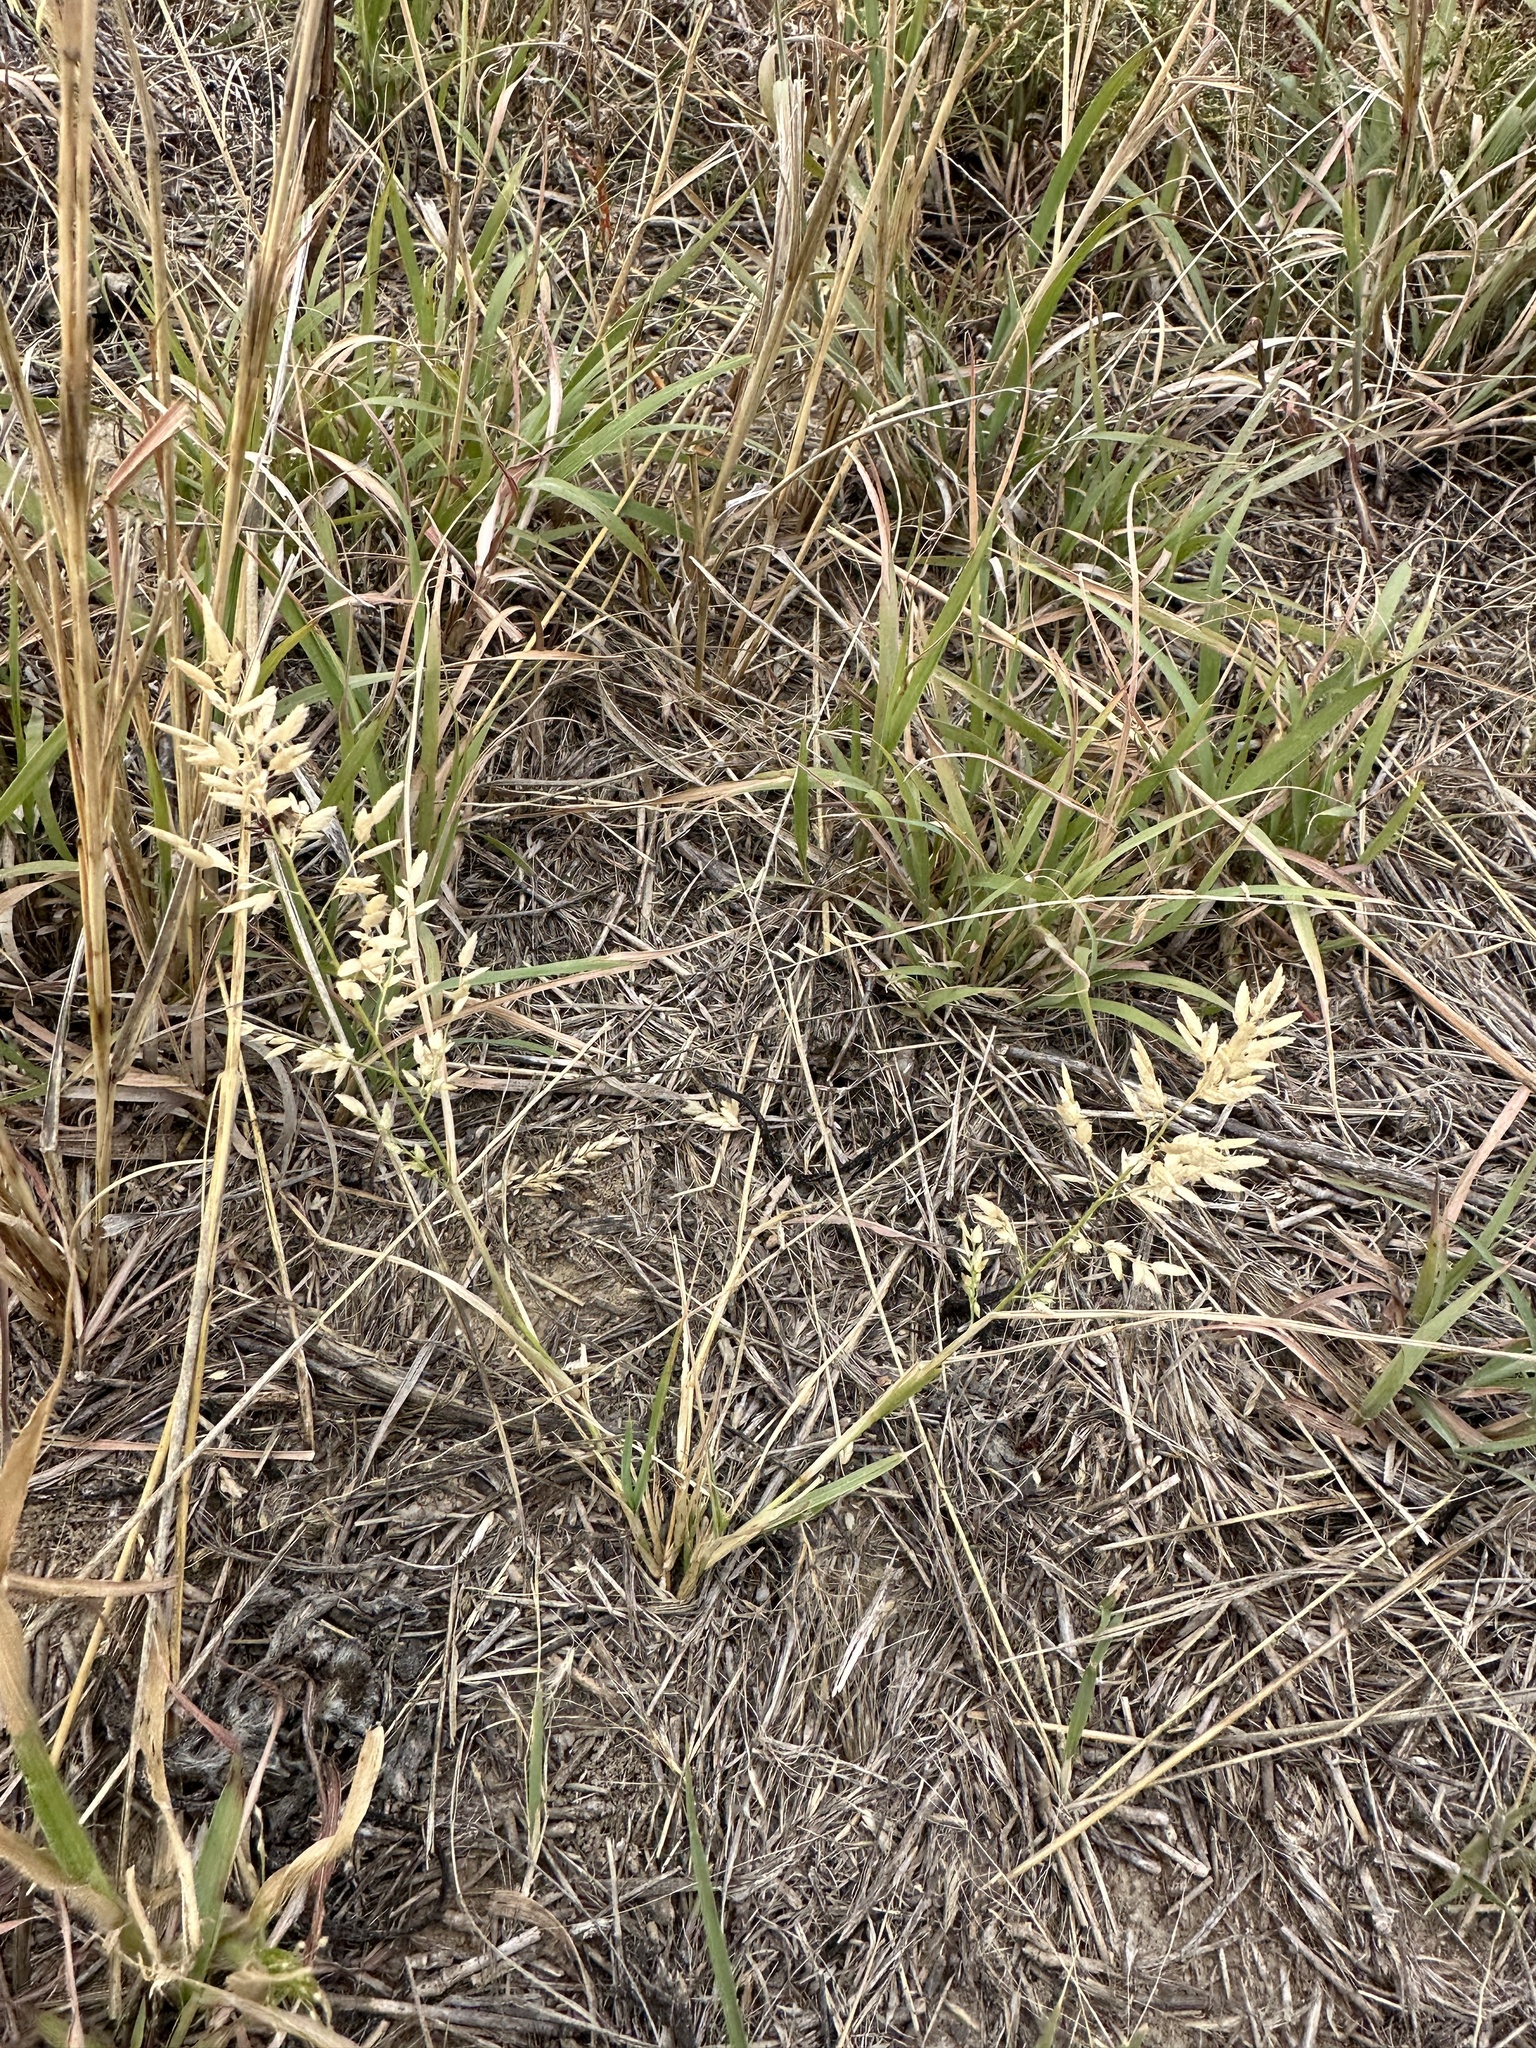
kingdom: Plantae
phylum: Tracheophyta
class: Liliopsida
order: Poales
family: Poaceae
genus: Eragrostis
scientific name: Eragrostis cilianensis
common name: Stinkgrass
